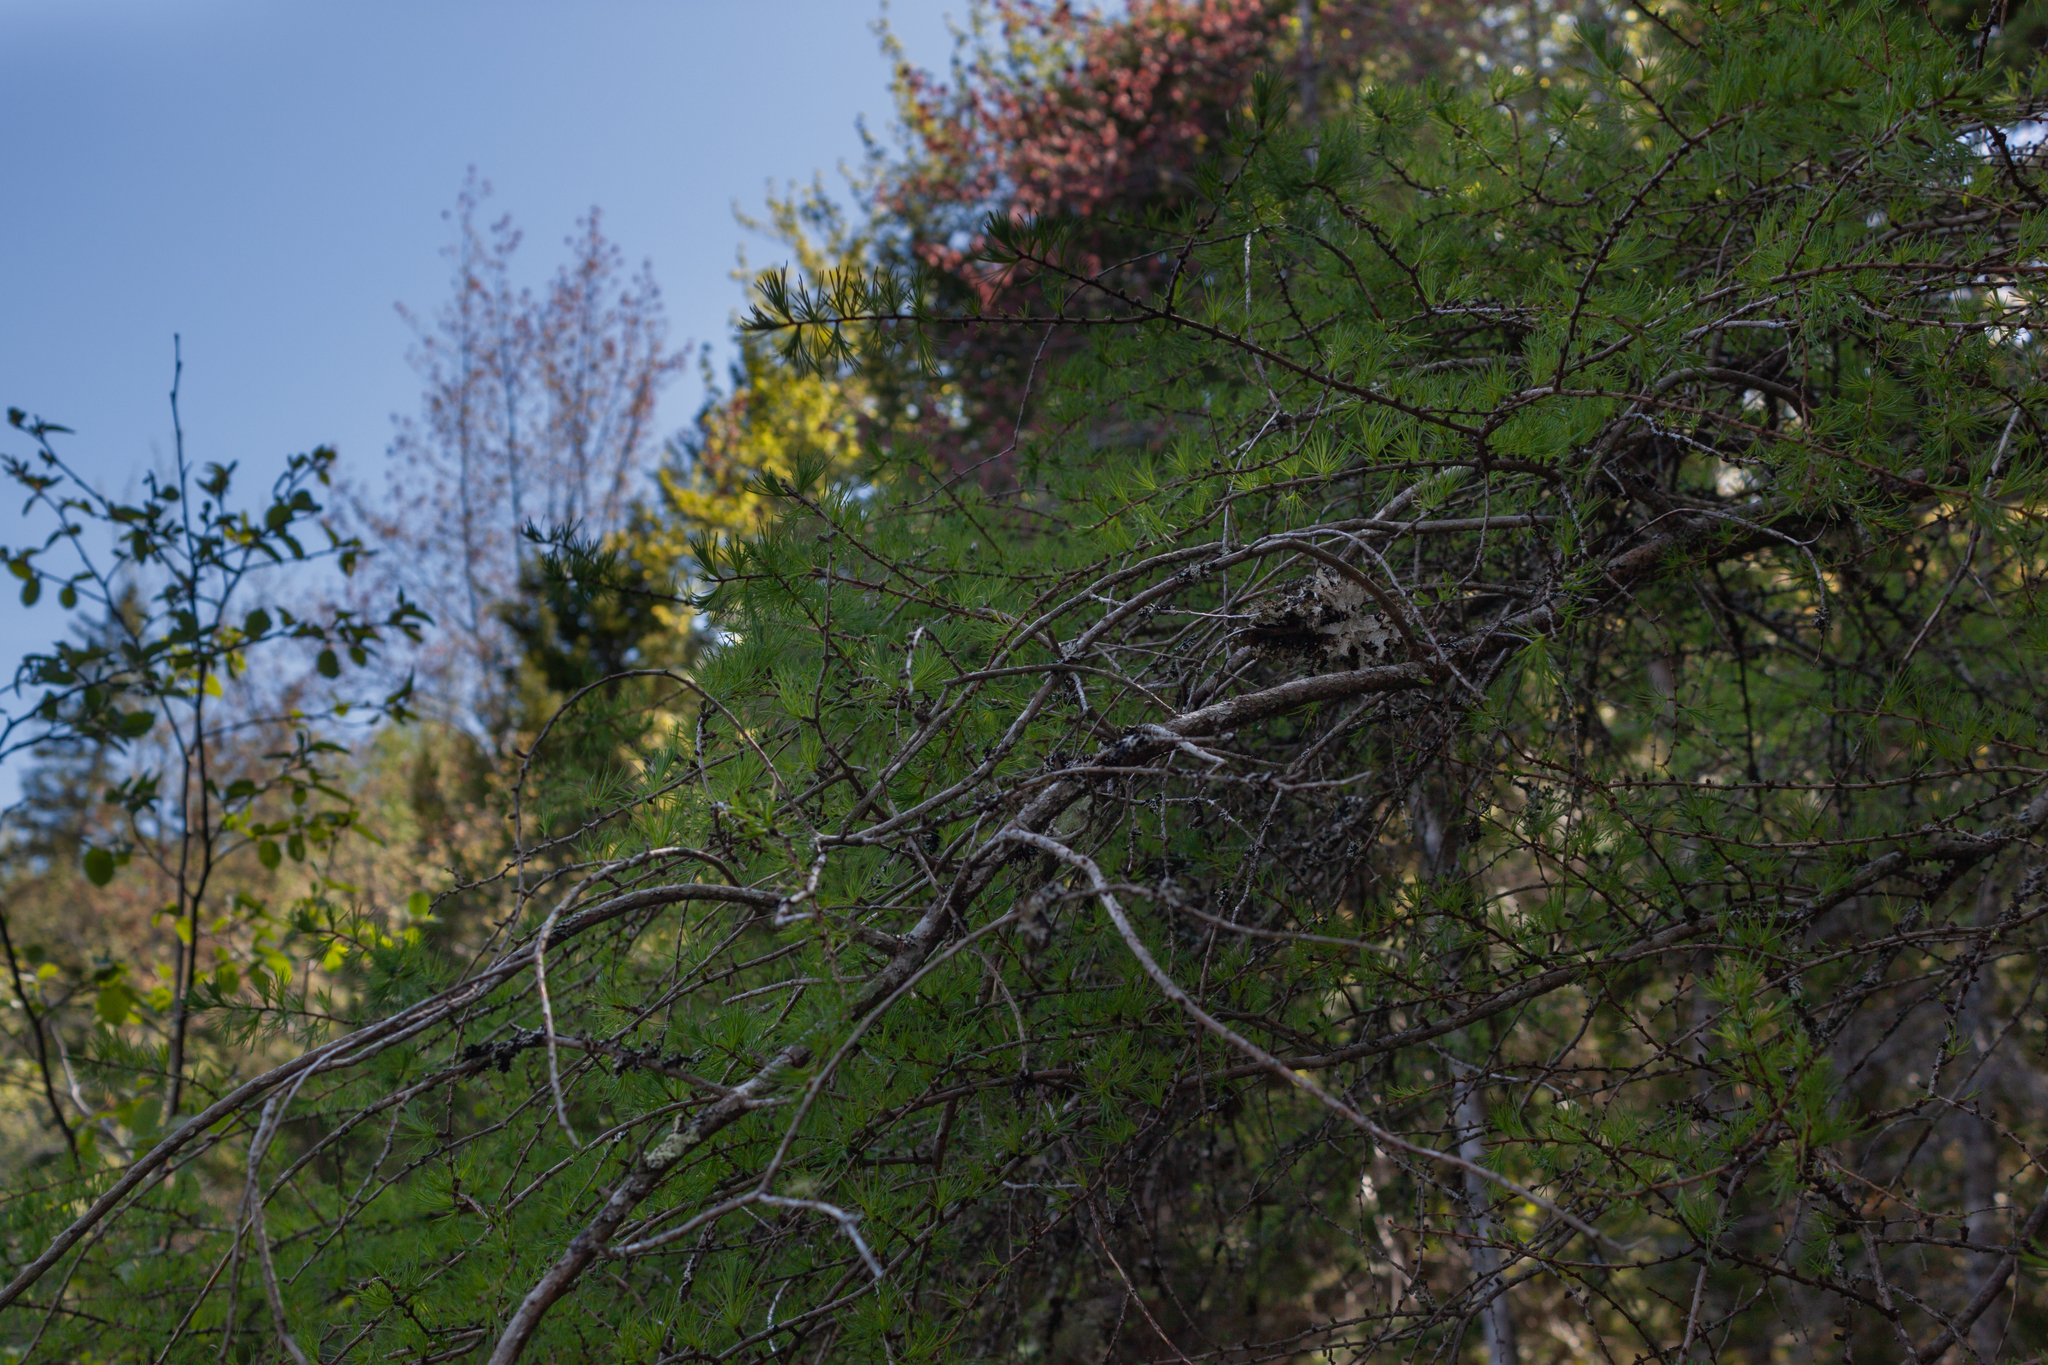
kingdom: Plantae
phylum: Tracheophyta
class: Pinopsida
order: Pinales
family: Pinaceae
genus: Larix
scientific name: Larix laricina
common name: American larch
